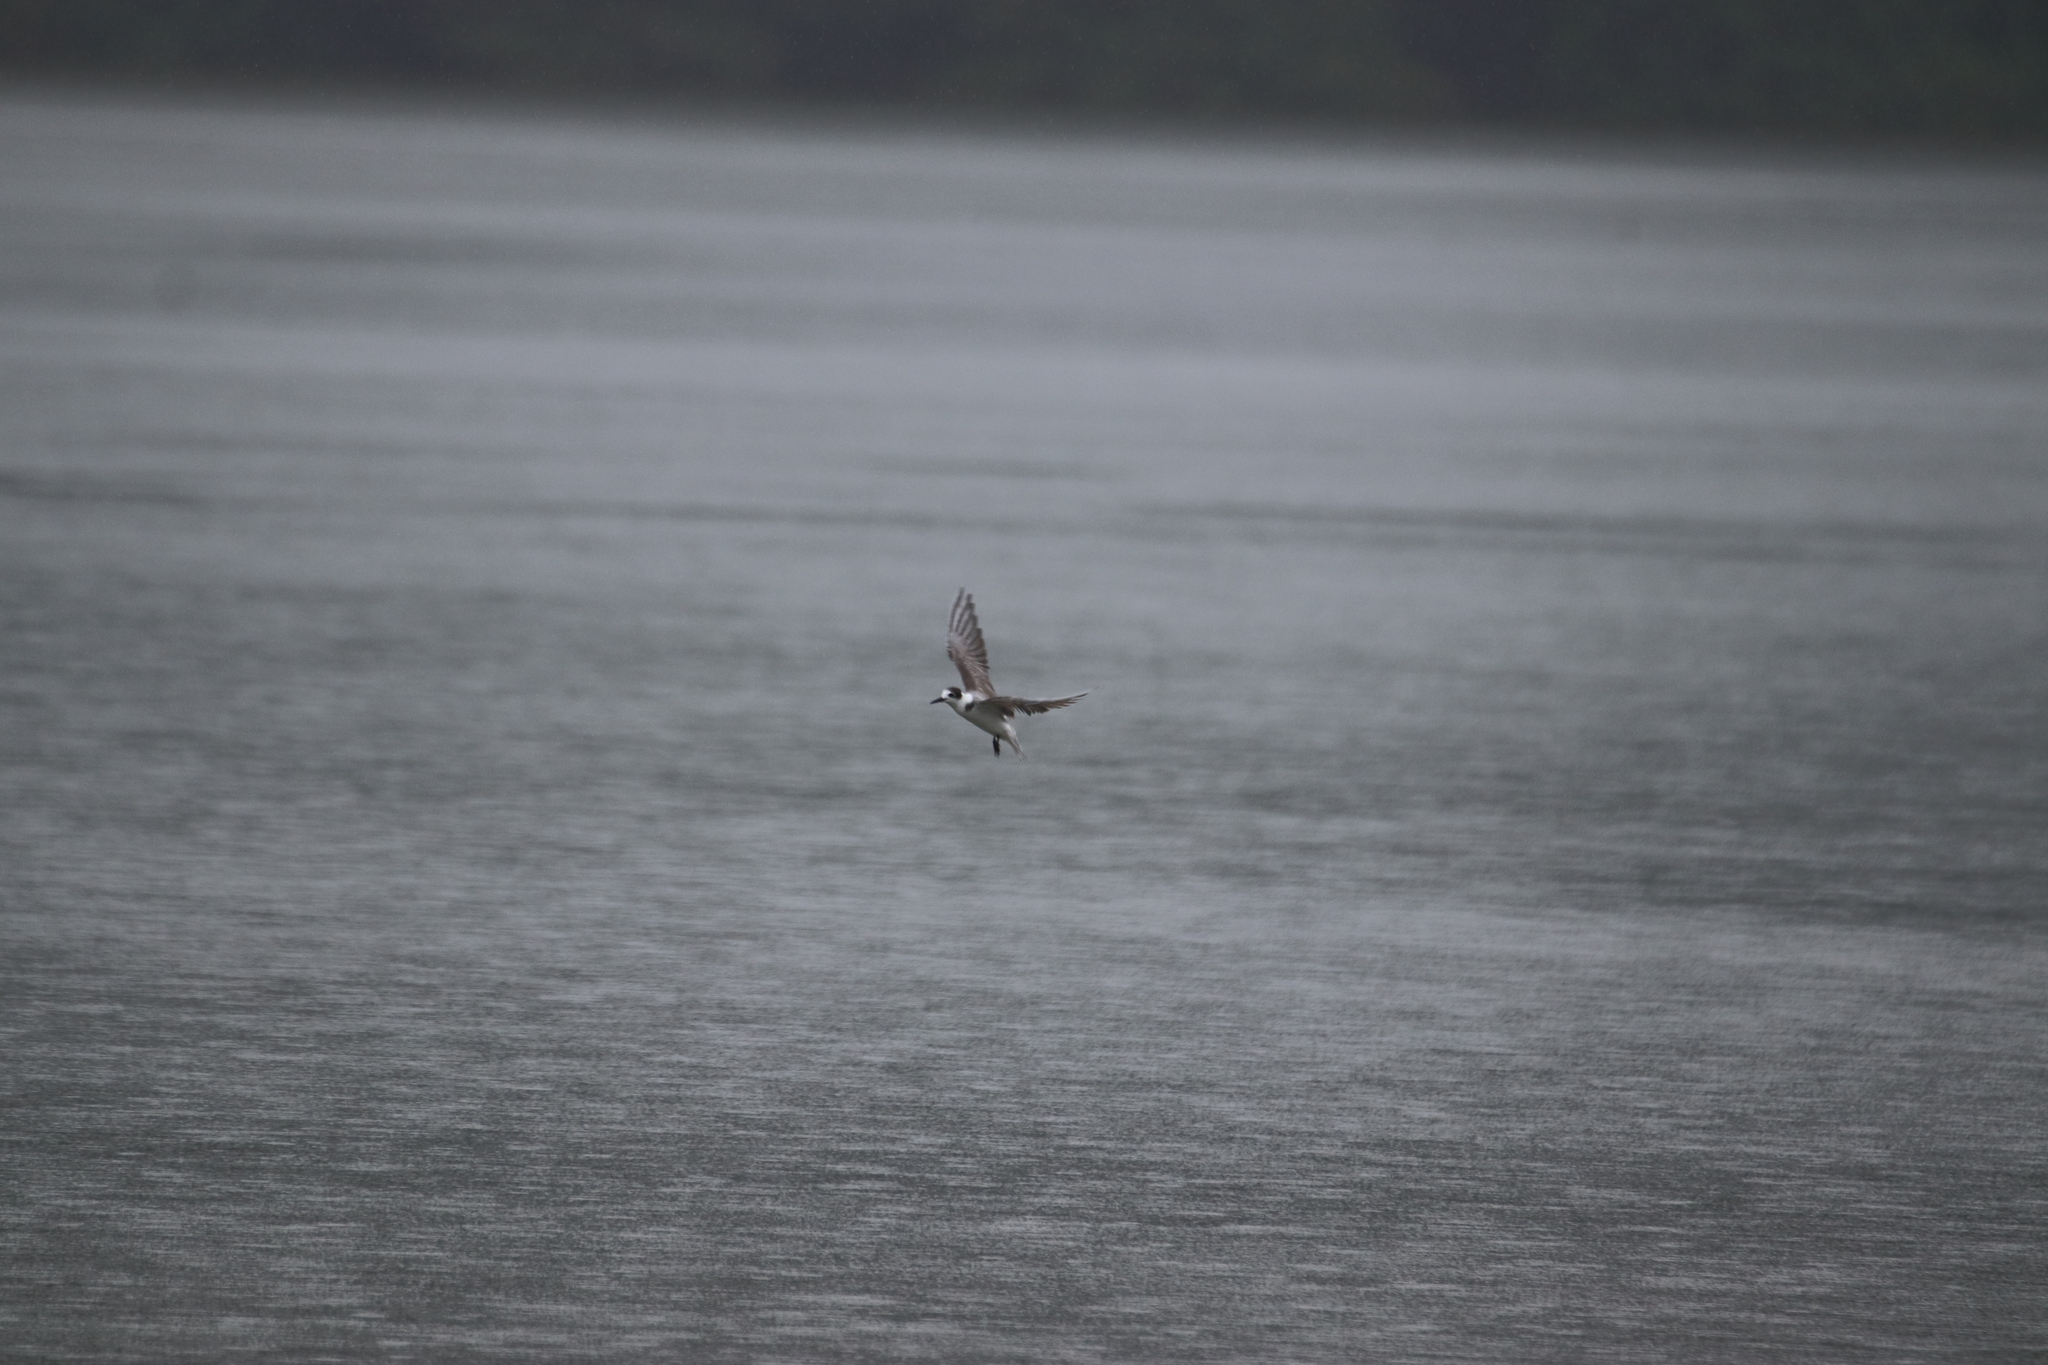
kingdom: Animalia
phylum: Chordata
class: Aves
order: Charadriiformes
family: Laridae
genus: Chlidonias
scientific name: Chlidonias niger
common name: Black tern
